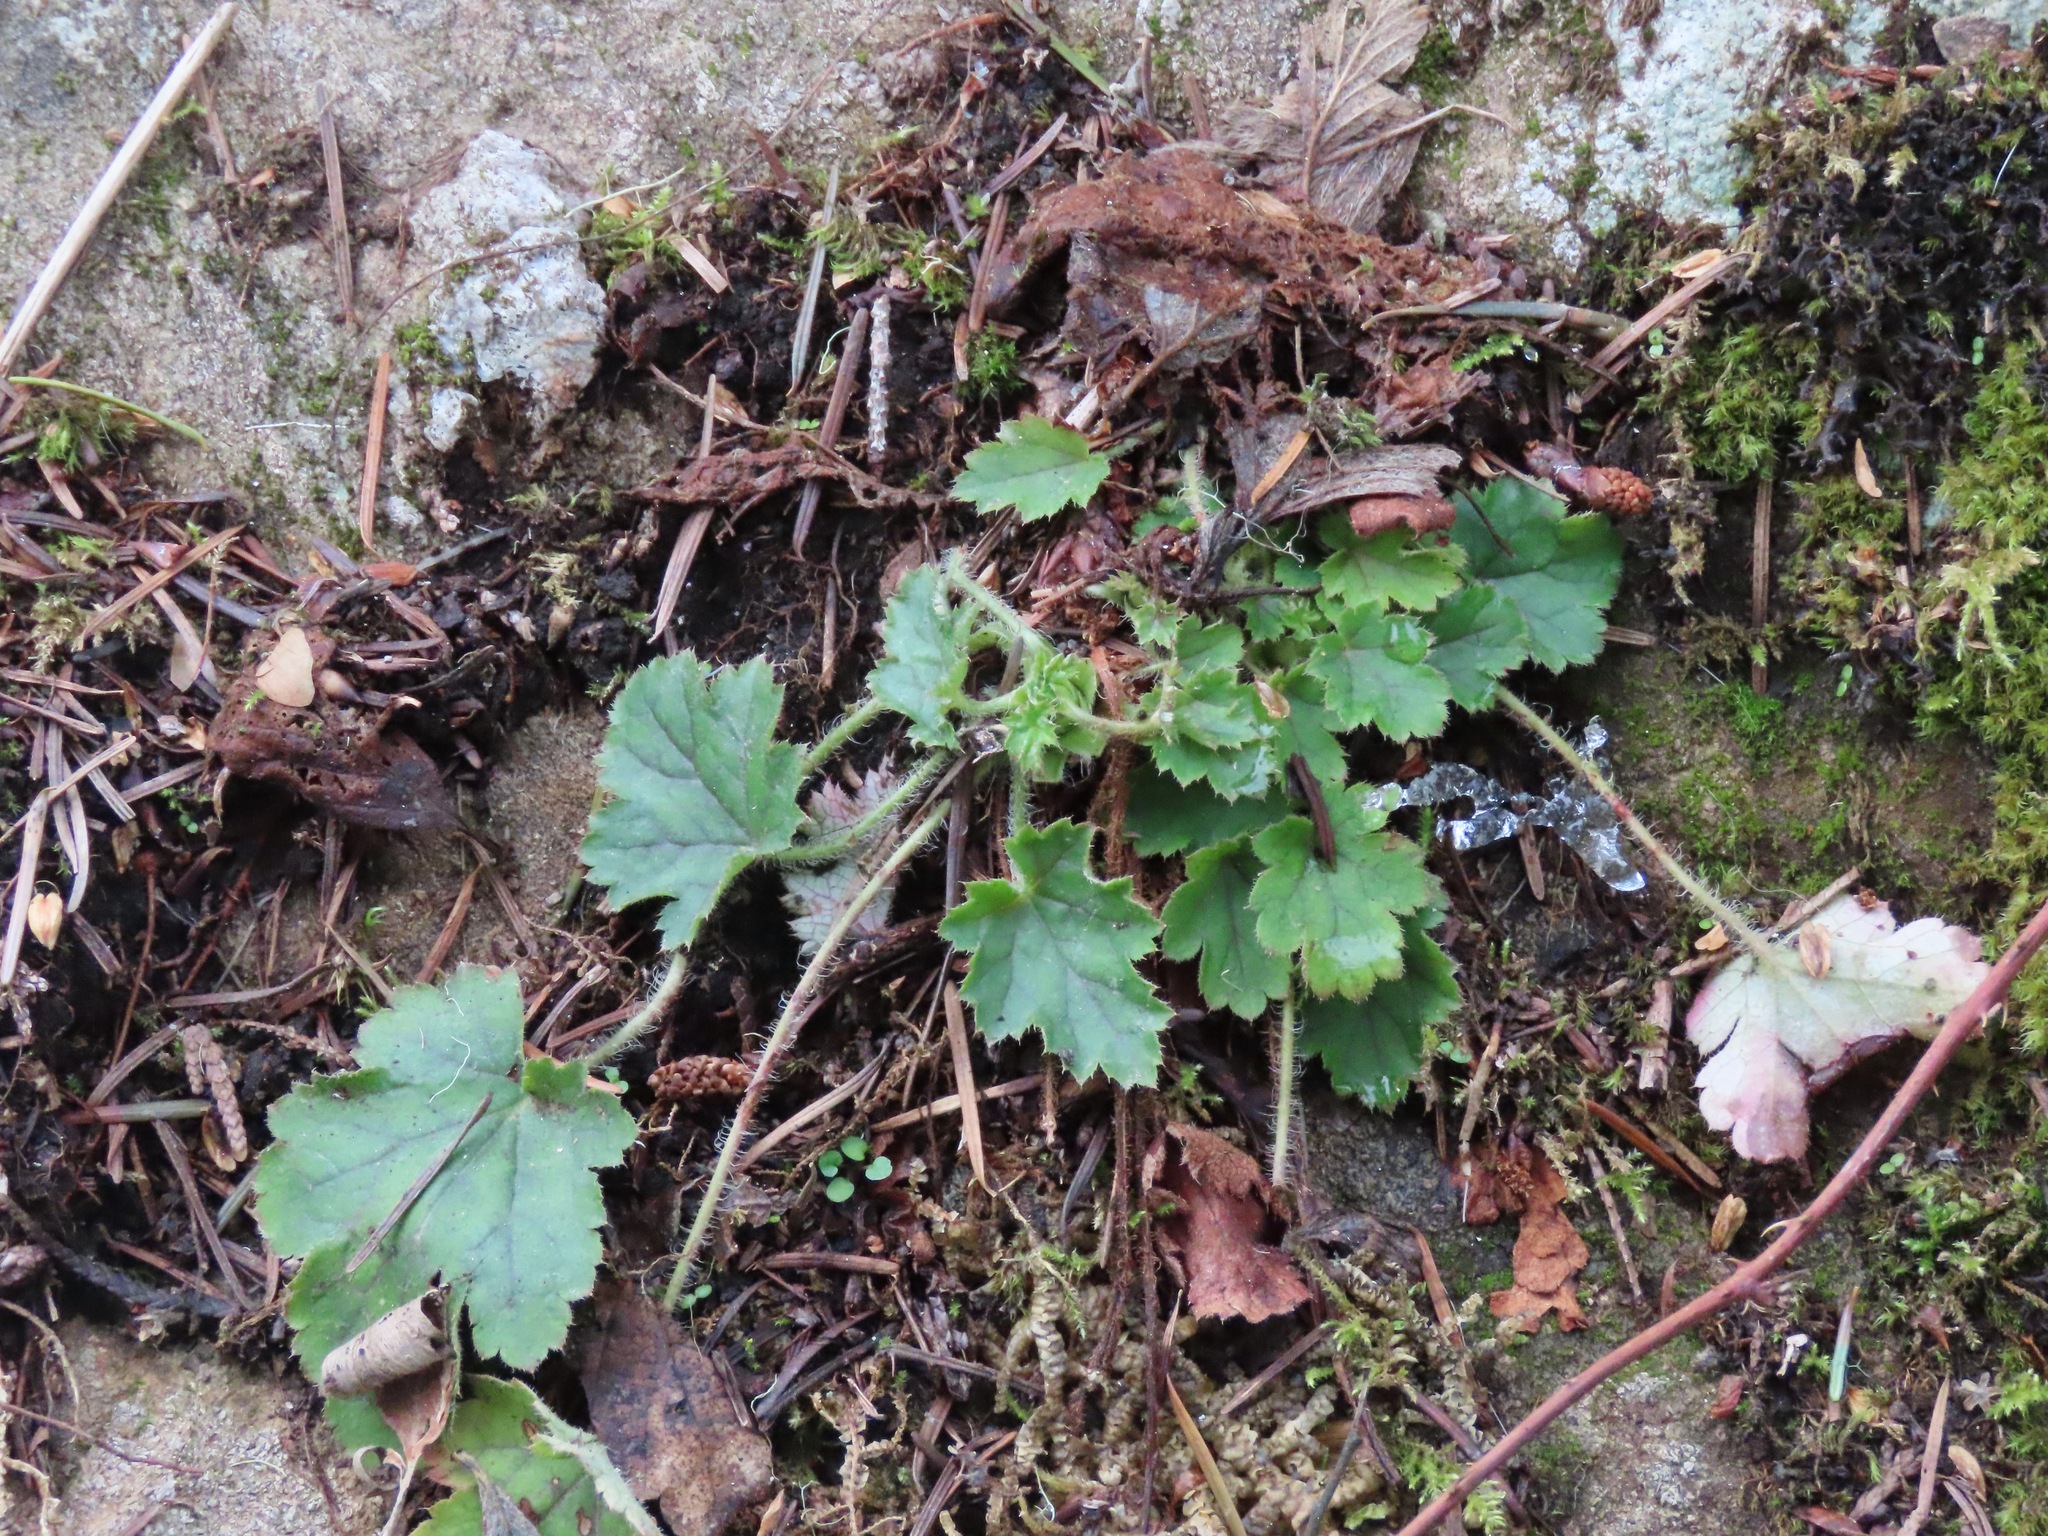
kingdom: Plantae
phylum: Tracheophyta
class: Magnoliopsida
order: Saxifragales
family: Saxifragaceae
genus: Heuchera
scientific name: Heuchera micrantha
